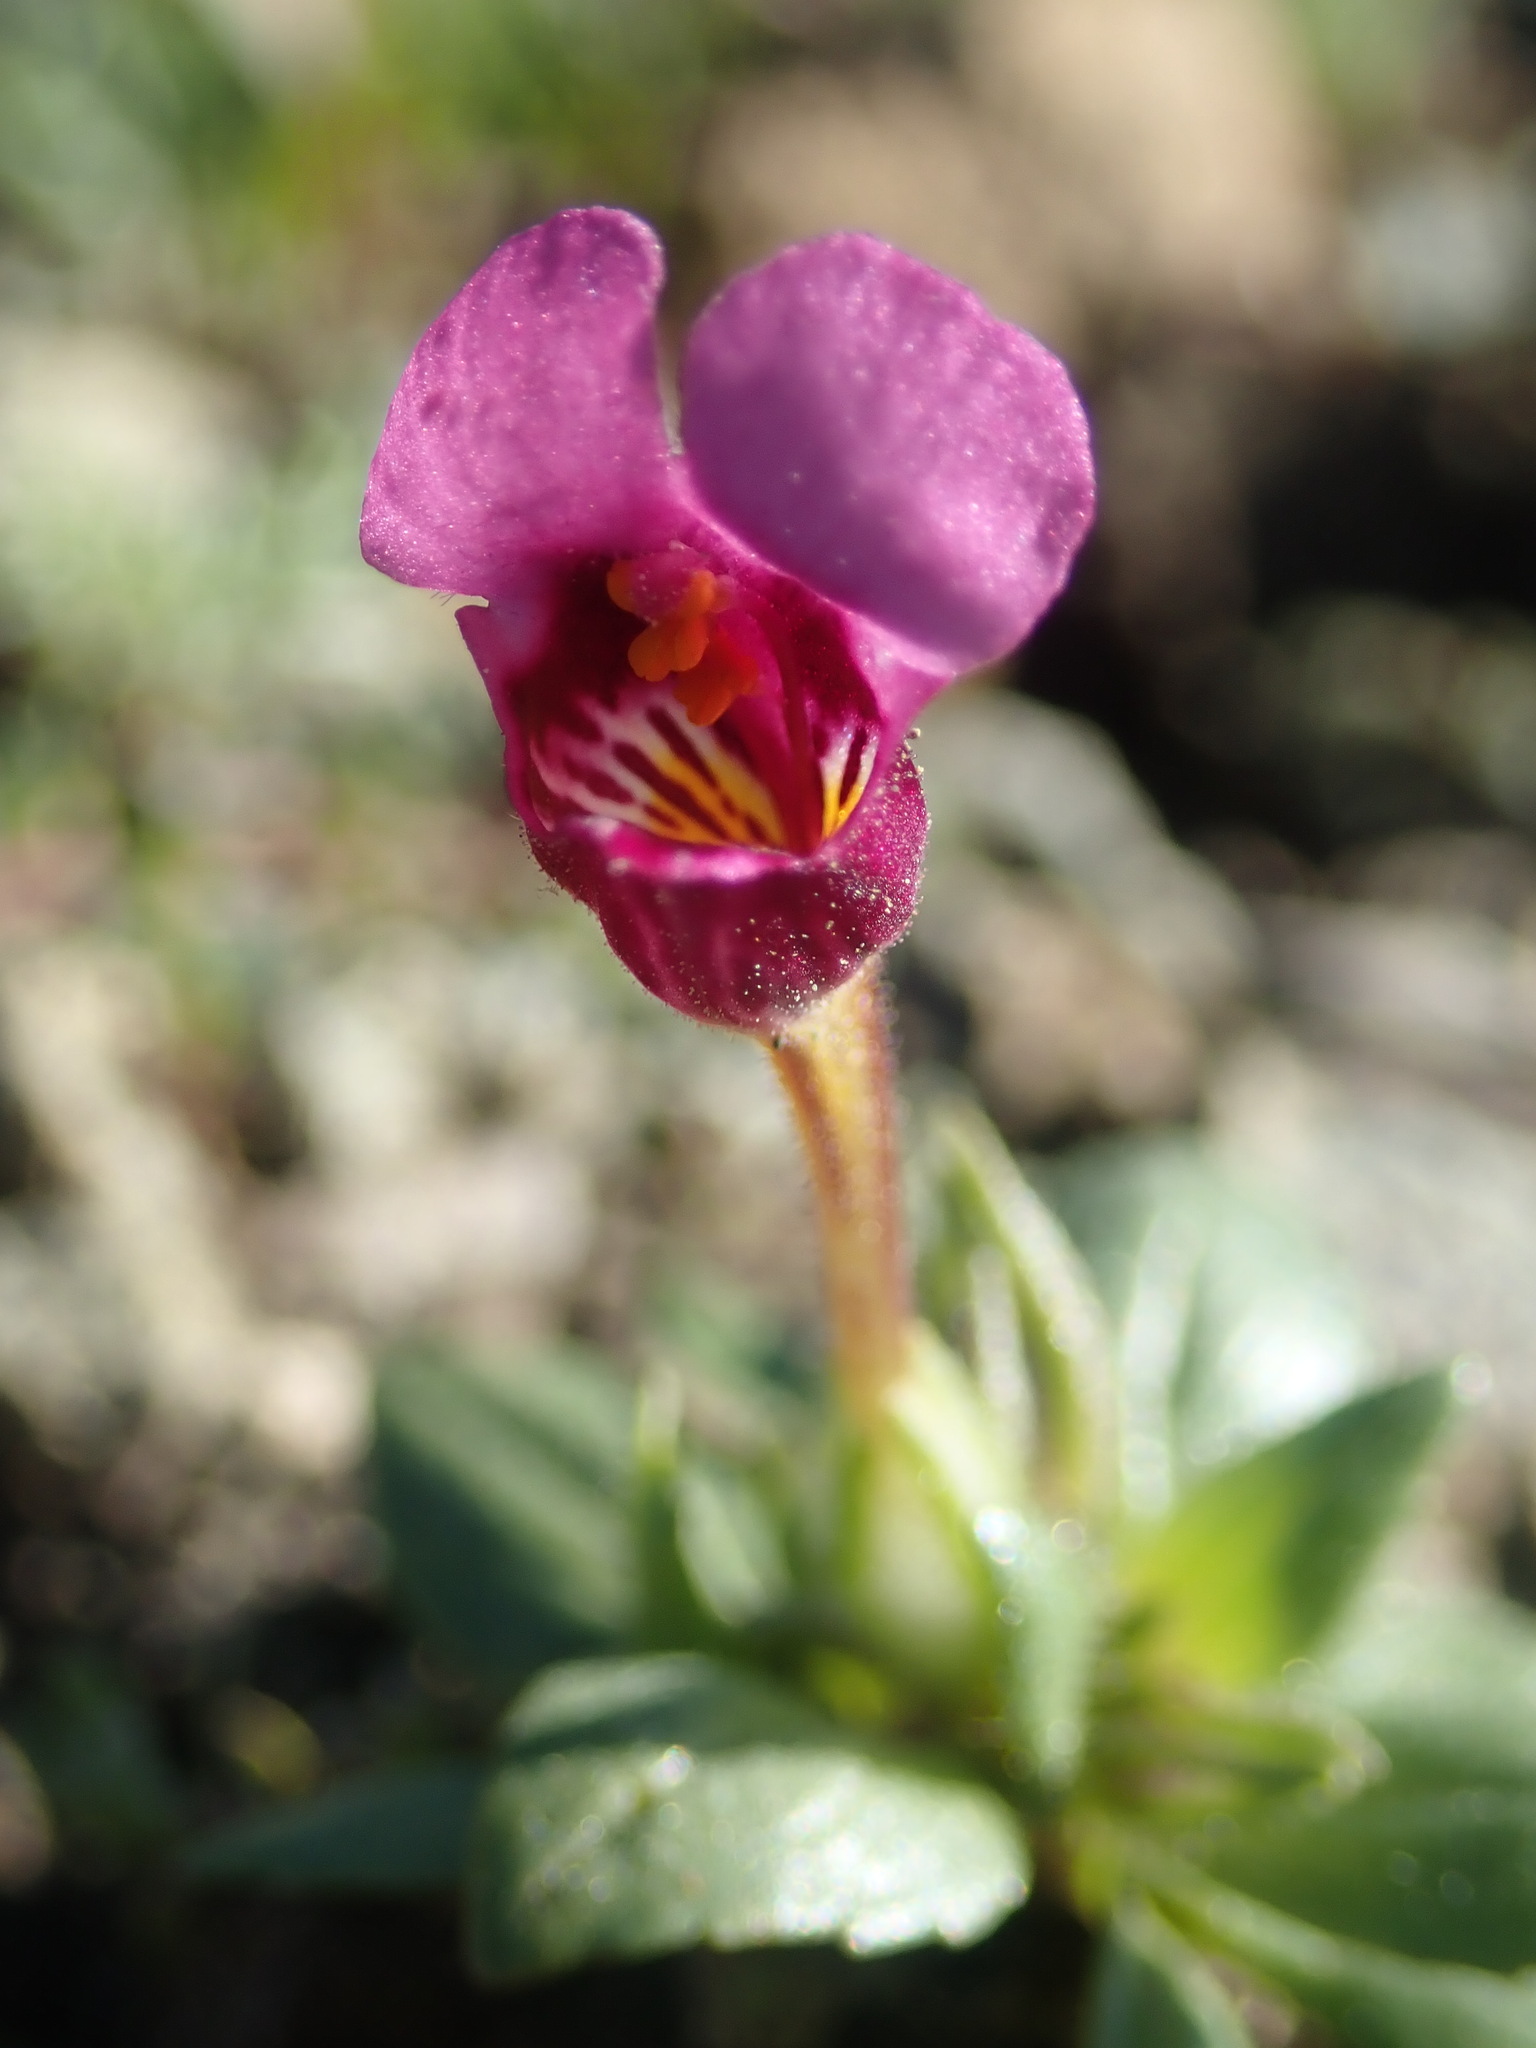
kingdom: Plantae
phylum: Tracheophyta
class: Magnoliopsida
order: Lamiales
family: Phrymaceae
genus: Diplacus
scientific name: Diplacus douglasii
